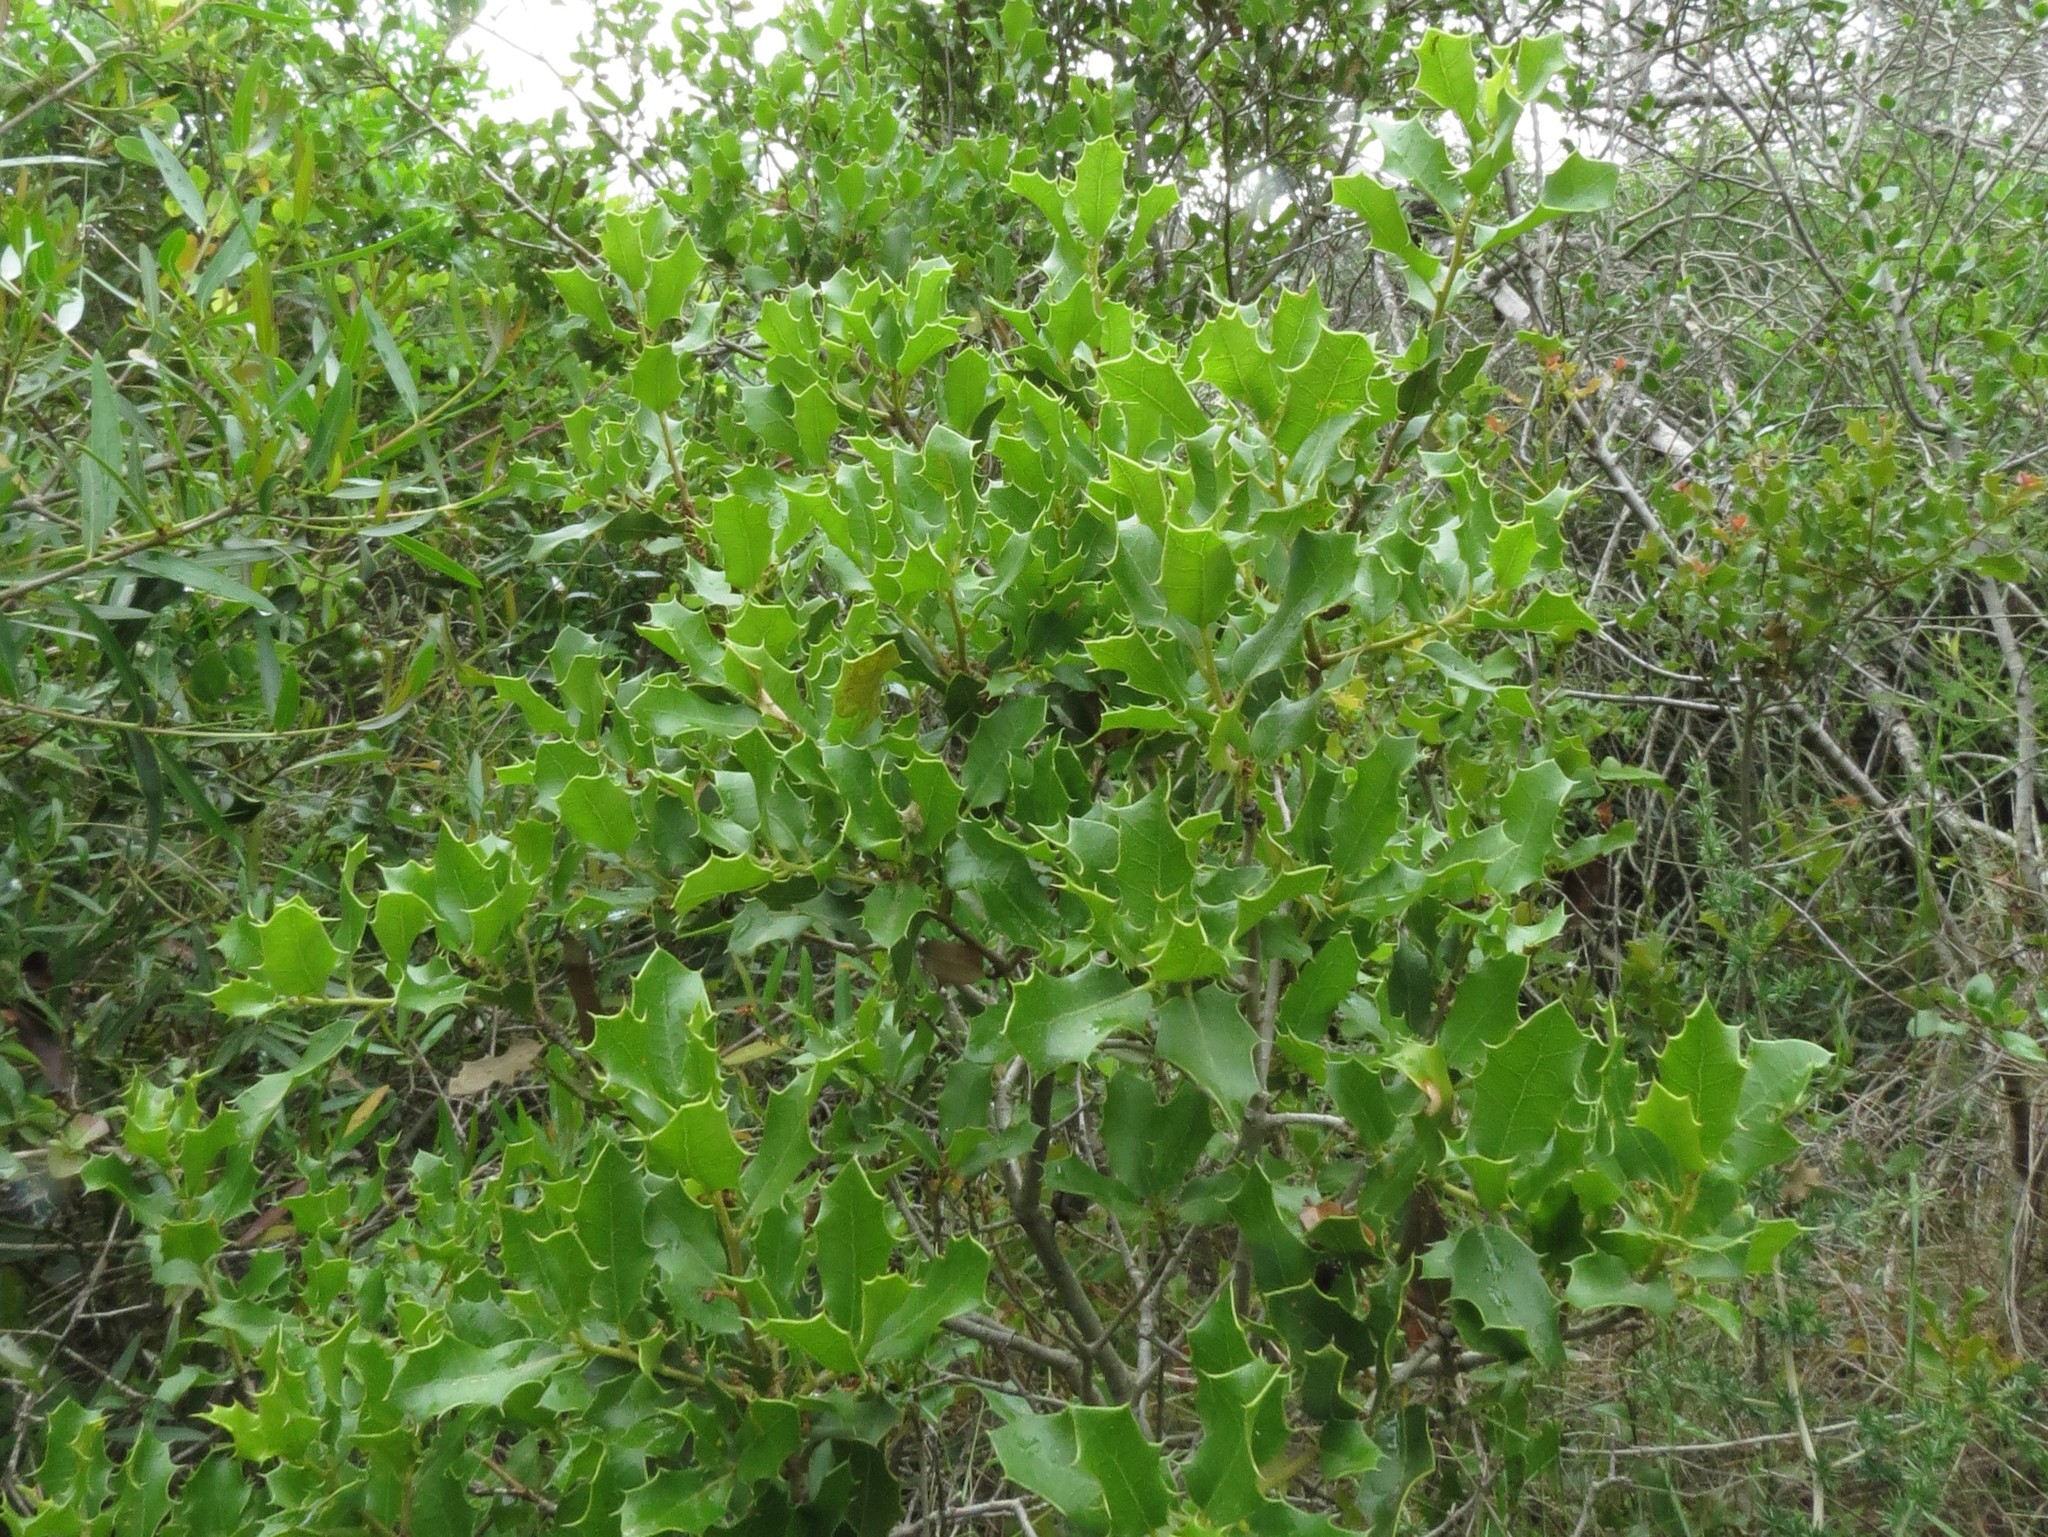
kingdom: Plantae
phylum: Tracheophyta
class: Magnoliopsida
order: Fagales
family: Fagaceae
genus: Quercus
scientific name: Quercus coccifera
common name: Kermes oak
